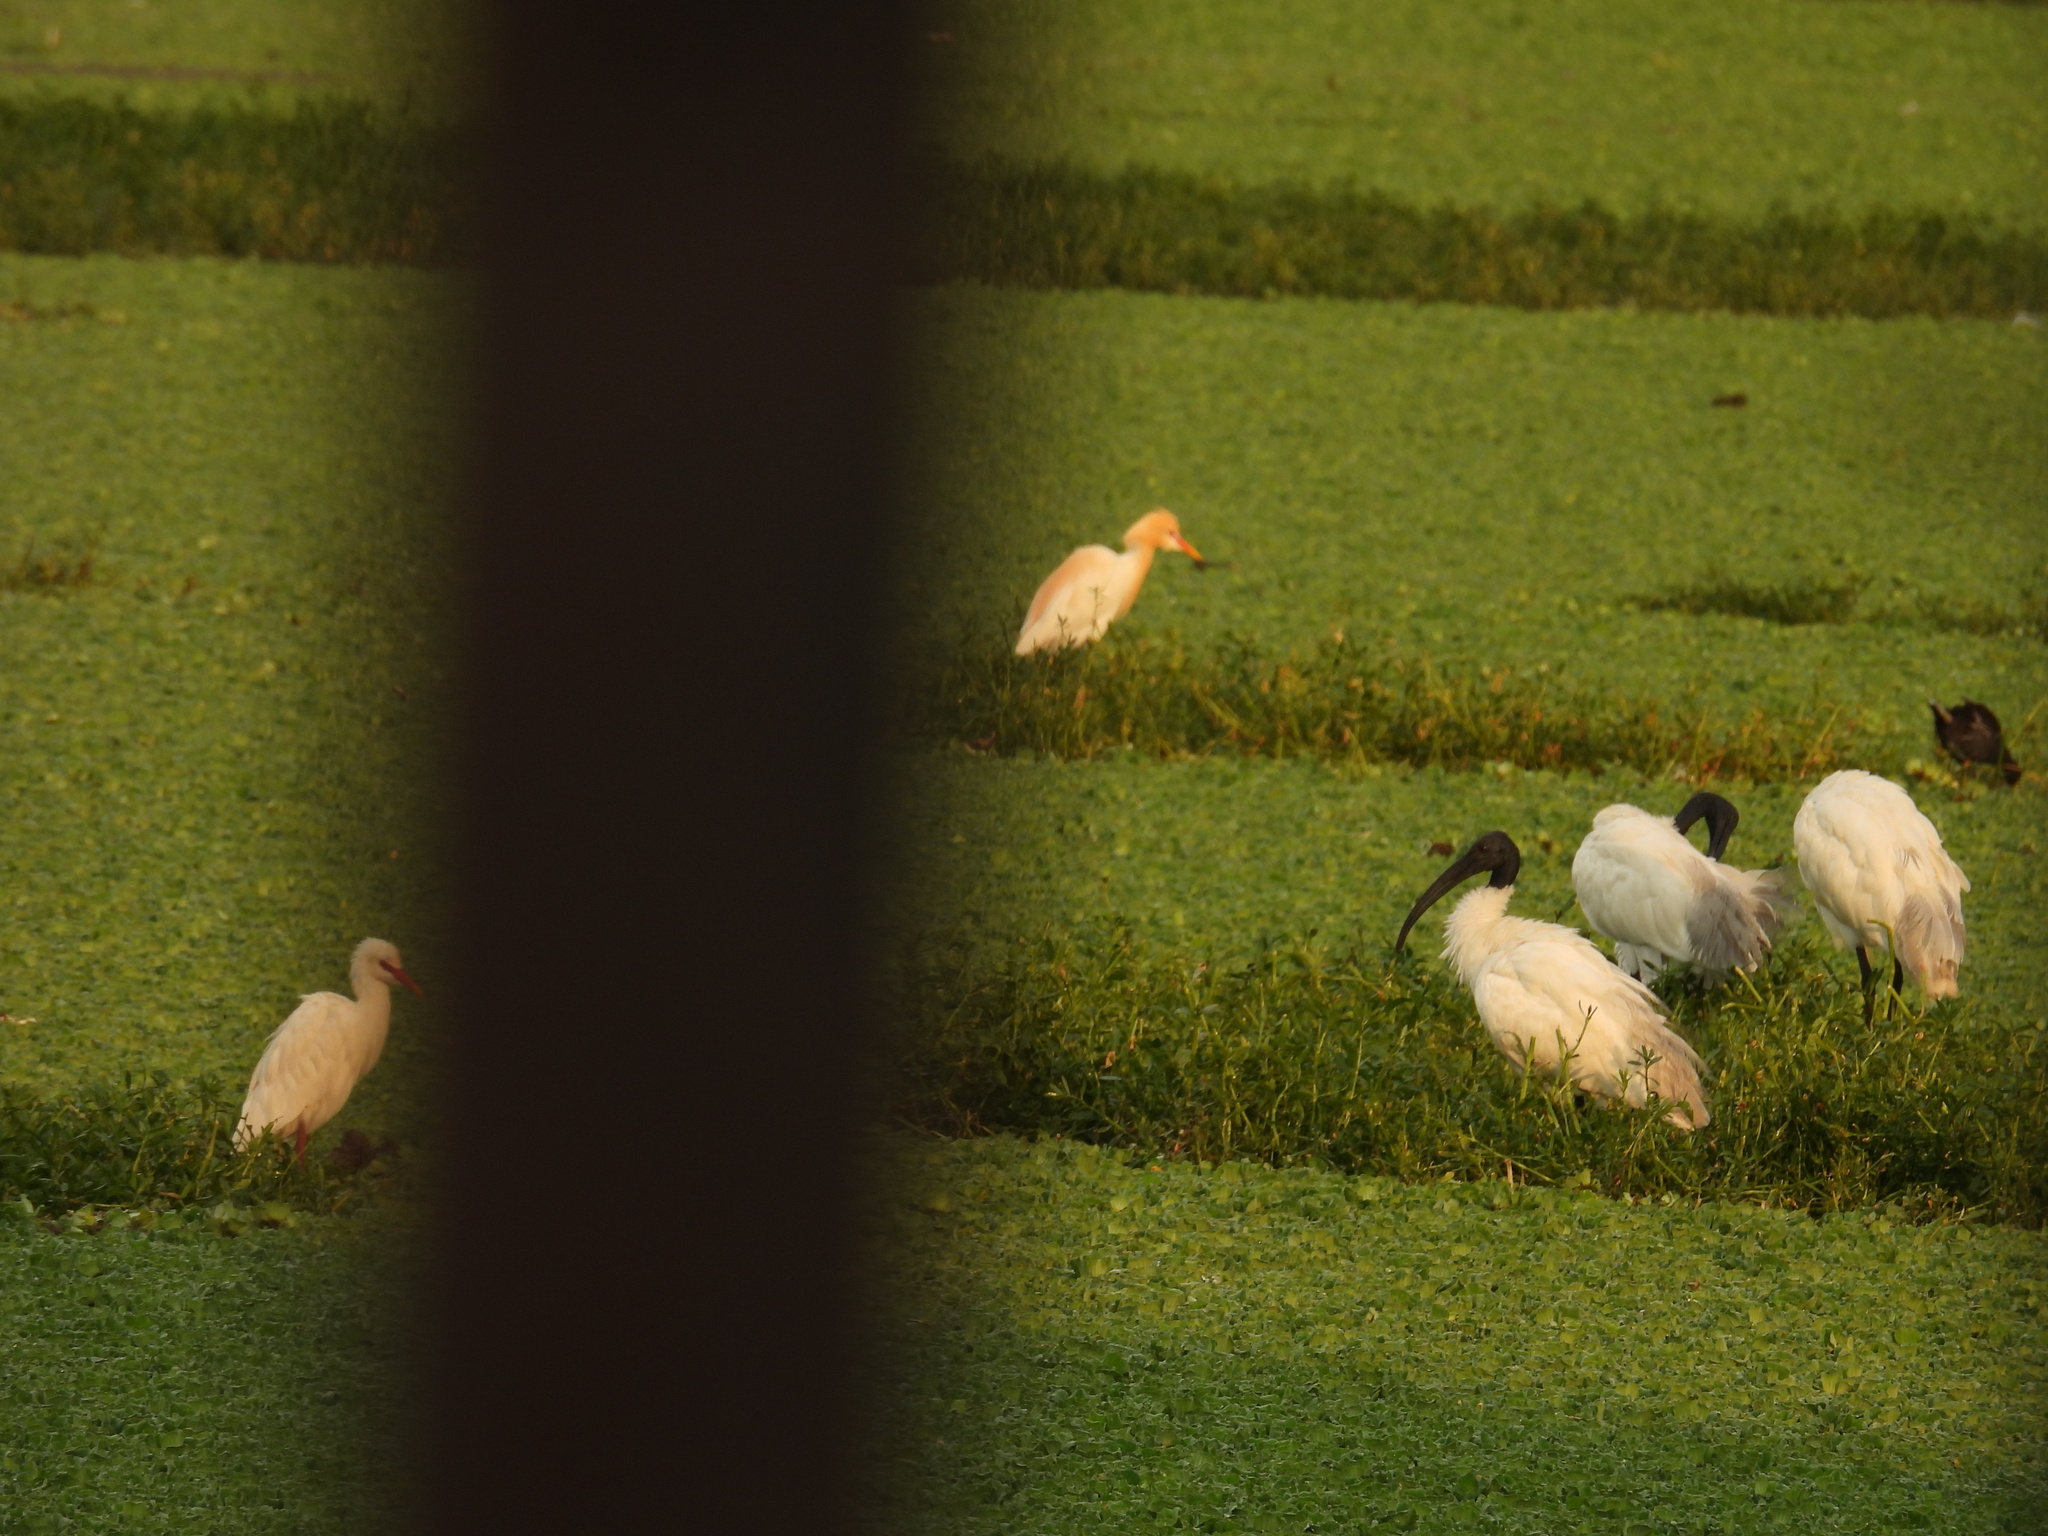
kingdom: Animalia
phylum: Chordata
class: Aves
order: Pelecaniformes
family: Threskiornithidae
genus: Threskiornis
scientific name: Threskiornis melanocephalus
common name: Black-headed ibis
